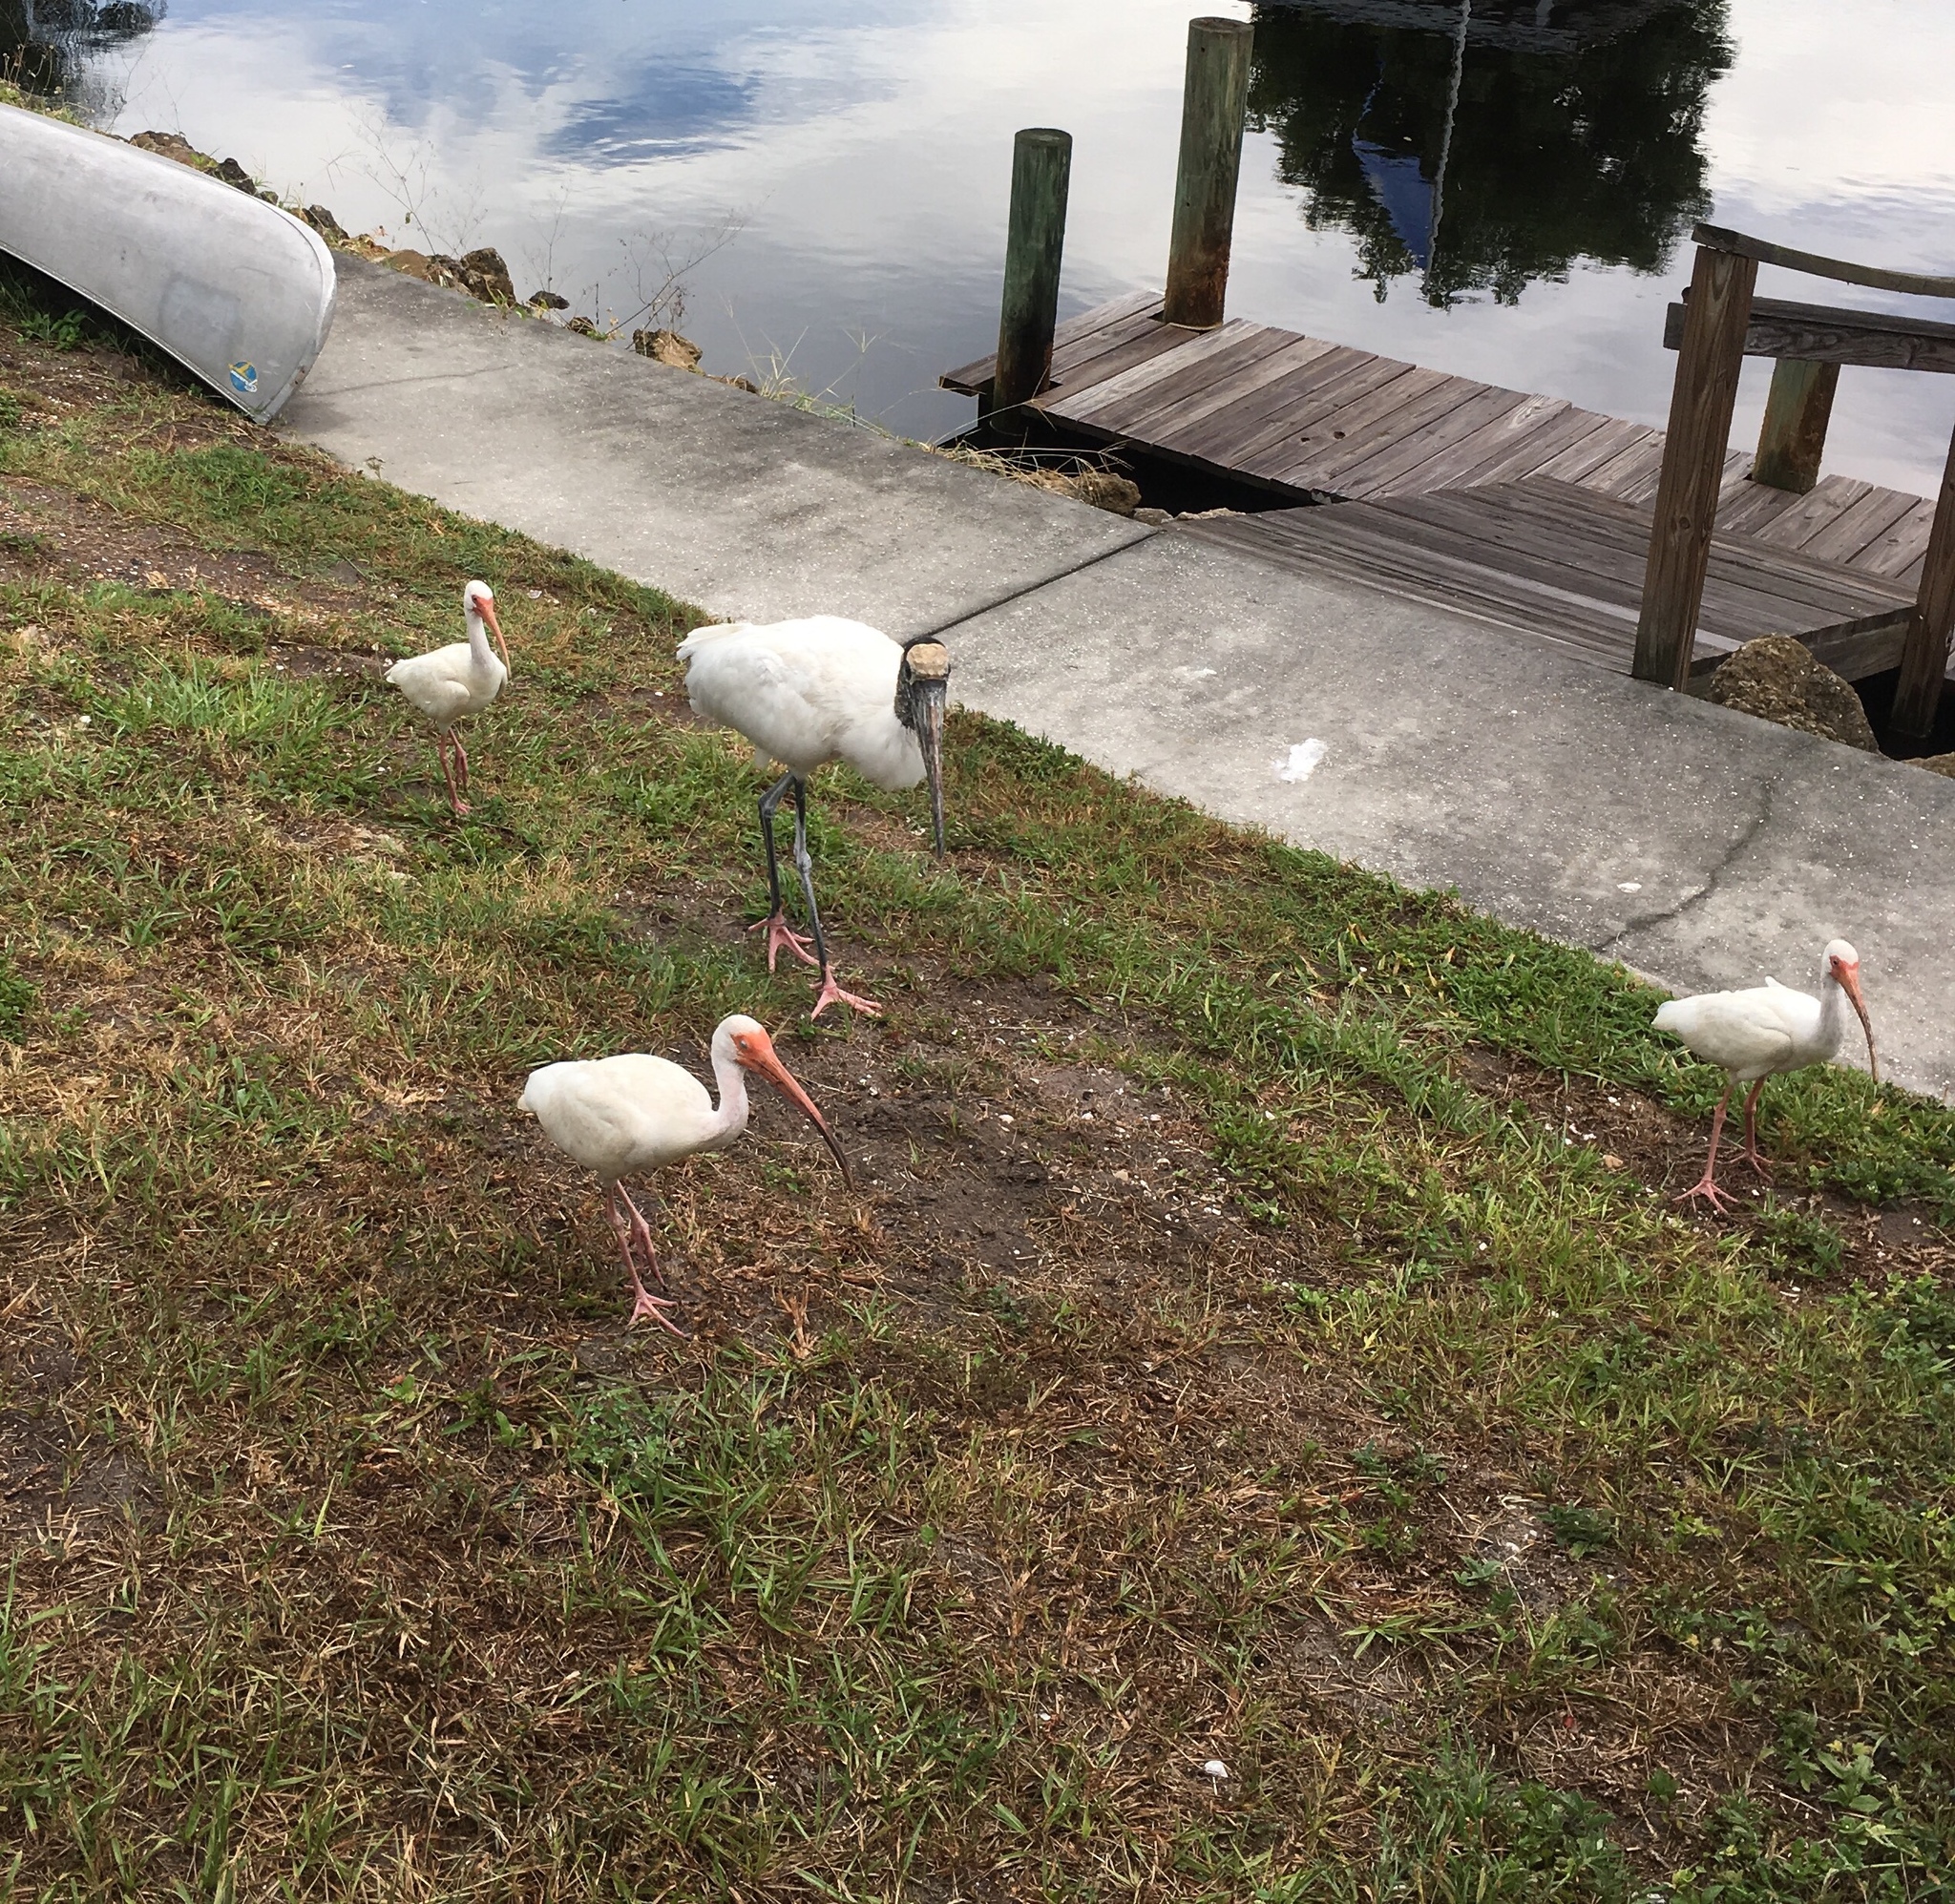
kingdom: Animalia
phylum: Chordata
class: Aves
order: Pelecaniformes
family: Threskiornithidae
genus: Eudocimus
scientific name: Eudocimus albus
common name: White ibis
